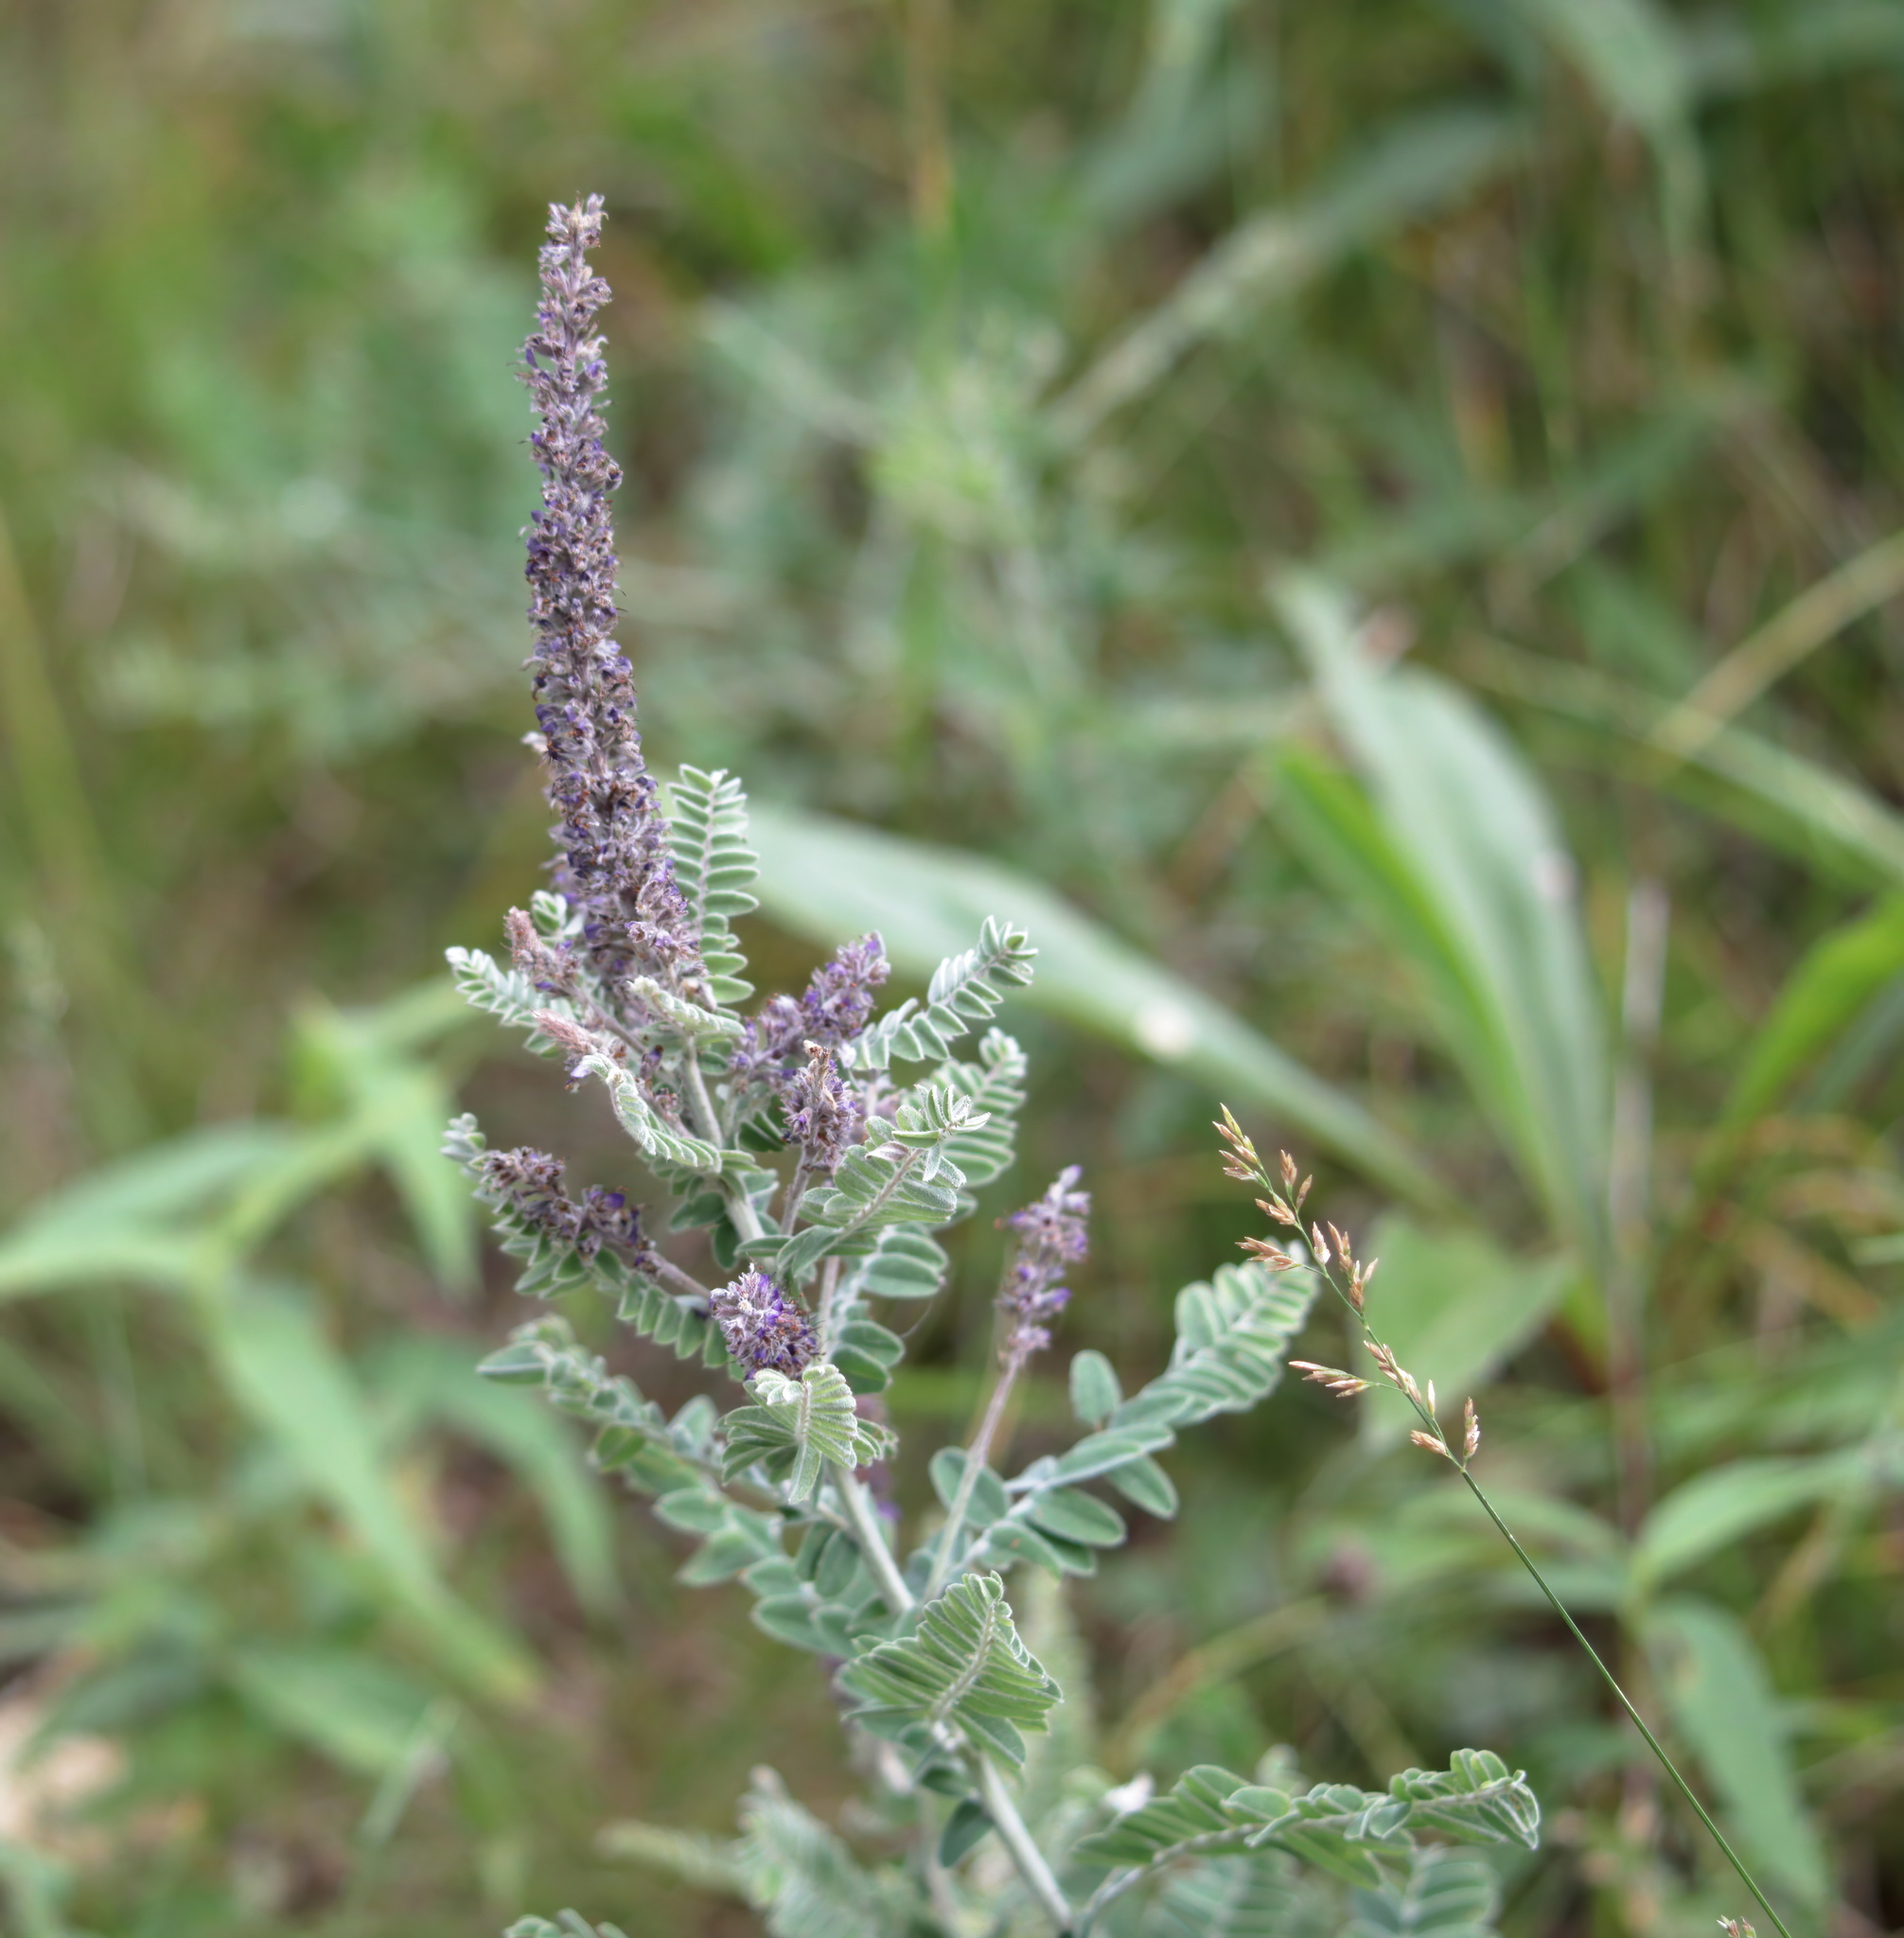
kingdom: Plantae
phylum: Tracheophyta
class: Magnoliopsida
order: Fabales
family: Fabaceae
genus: Amorpha
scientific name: Amorpha canescens
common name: Leadplant
